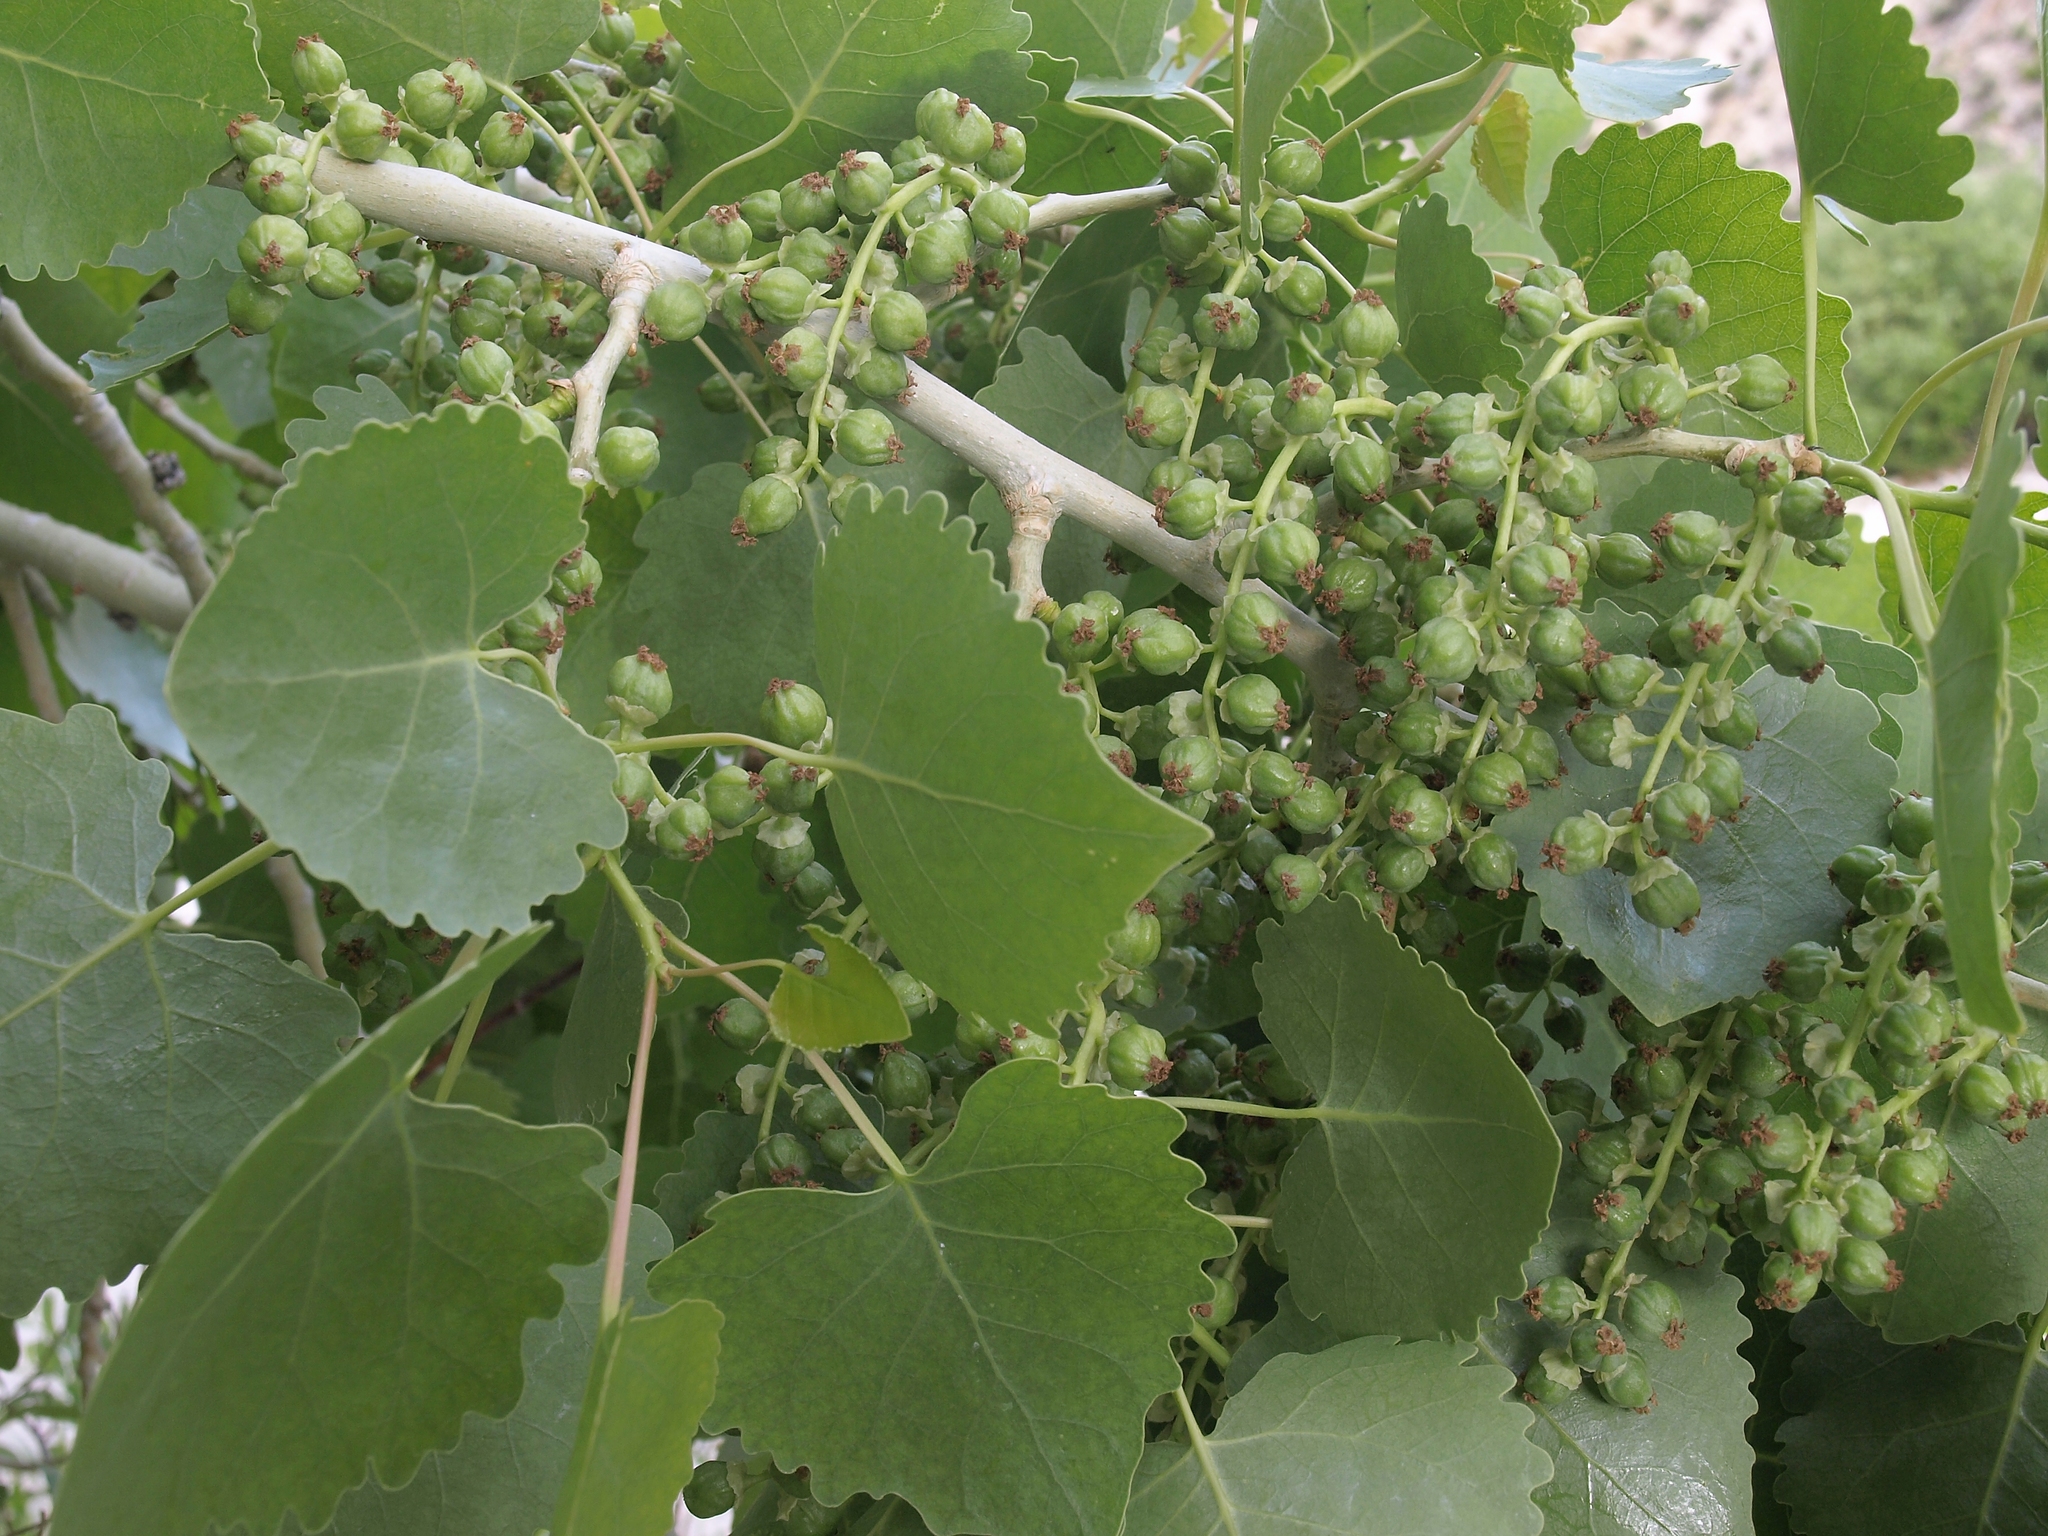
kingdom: Plantae
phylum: Tracheophyta
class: Magnoliopsida
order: Malpighiales
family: Salicaceae
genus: Populus
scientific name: Populus fremontii
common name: Fremont's cottonwood
